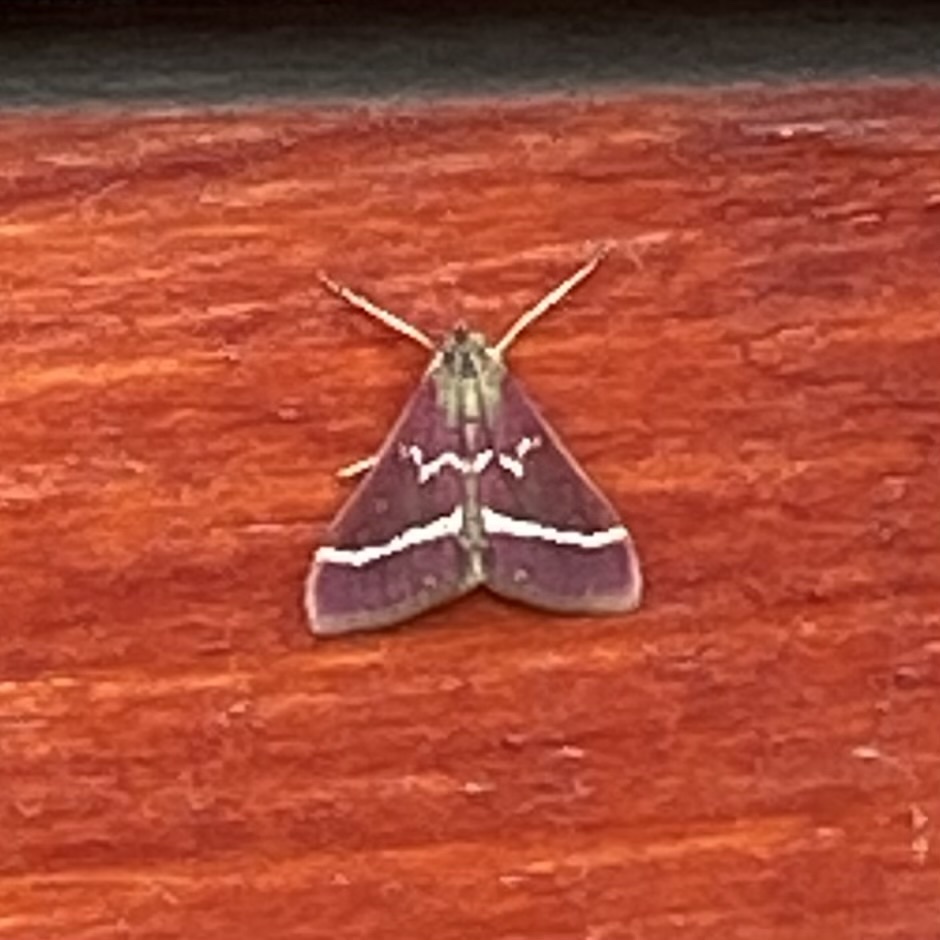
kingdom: Animalia
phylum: Arthropoda
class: Insecta
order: Lepidoptera
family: Crambidae
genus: Pyrausta
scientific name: Pyrausta volupialis
